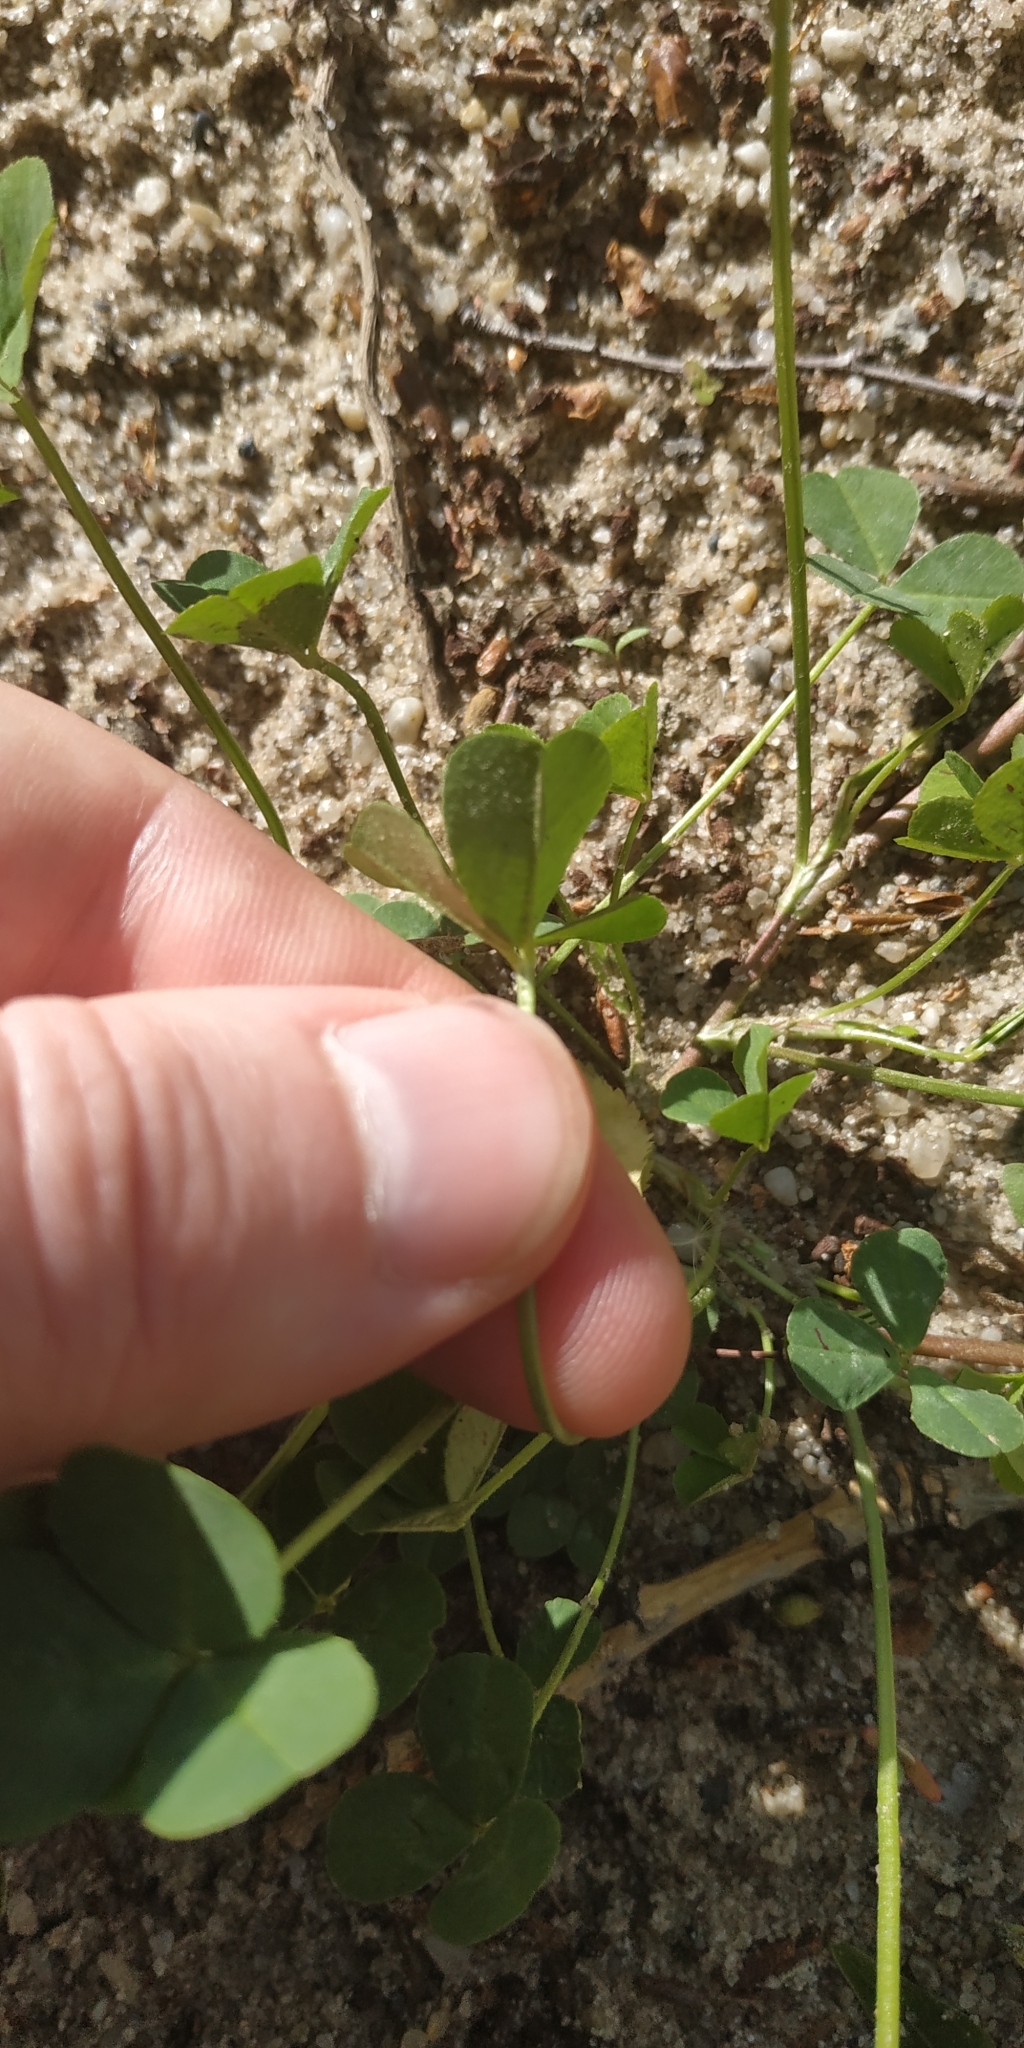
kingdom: Plantae
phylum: Tracheophyta
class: Magnoliopsida
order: Fabales
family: Fabaceae
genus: Trifolium
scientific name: Trifolium repens
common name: White clover
